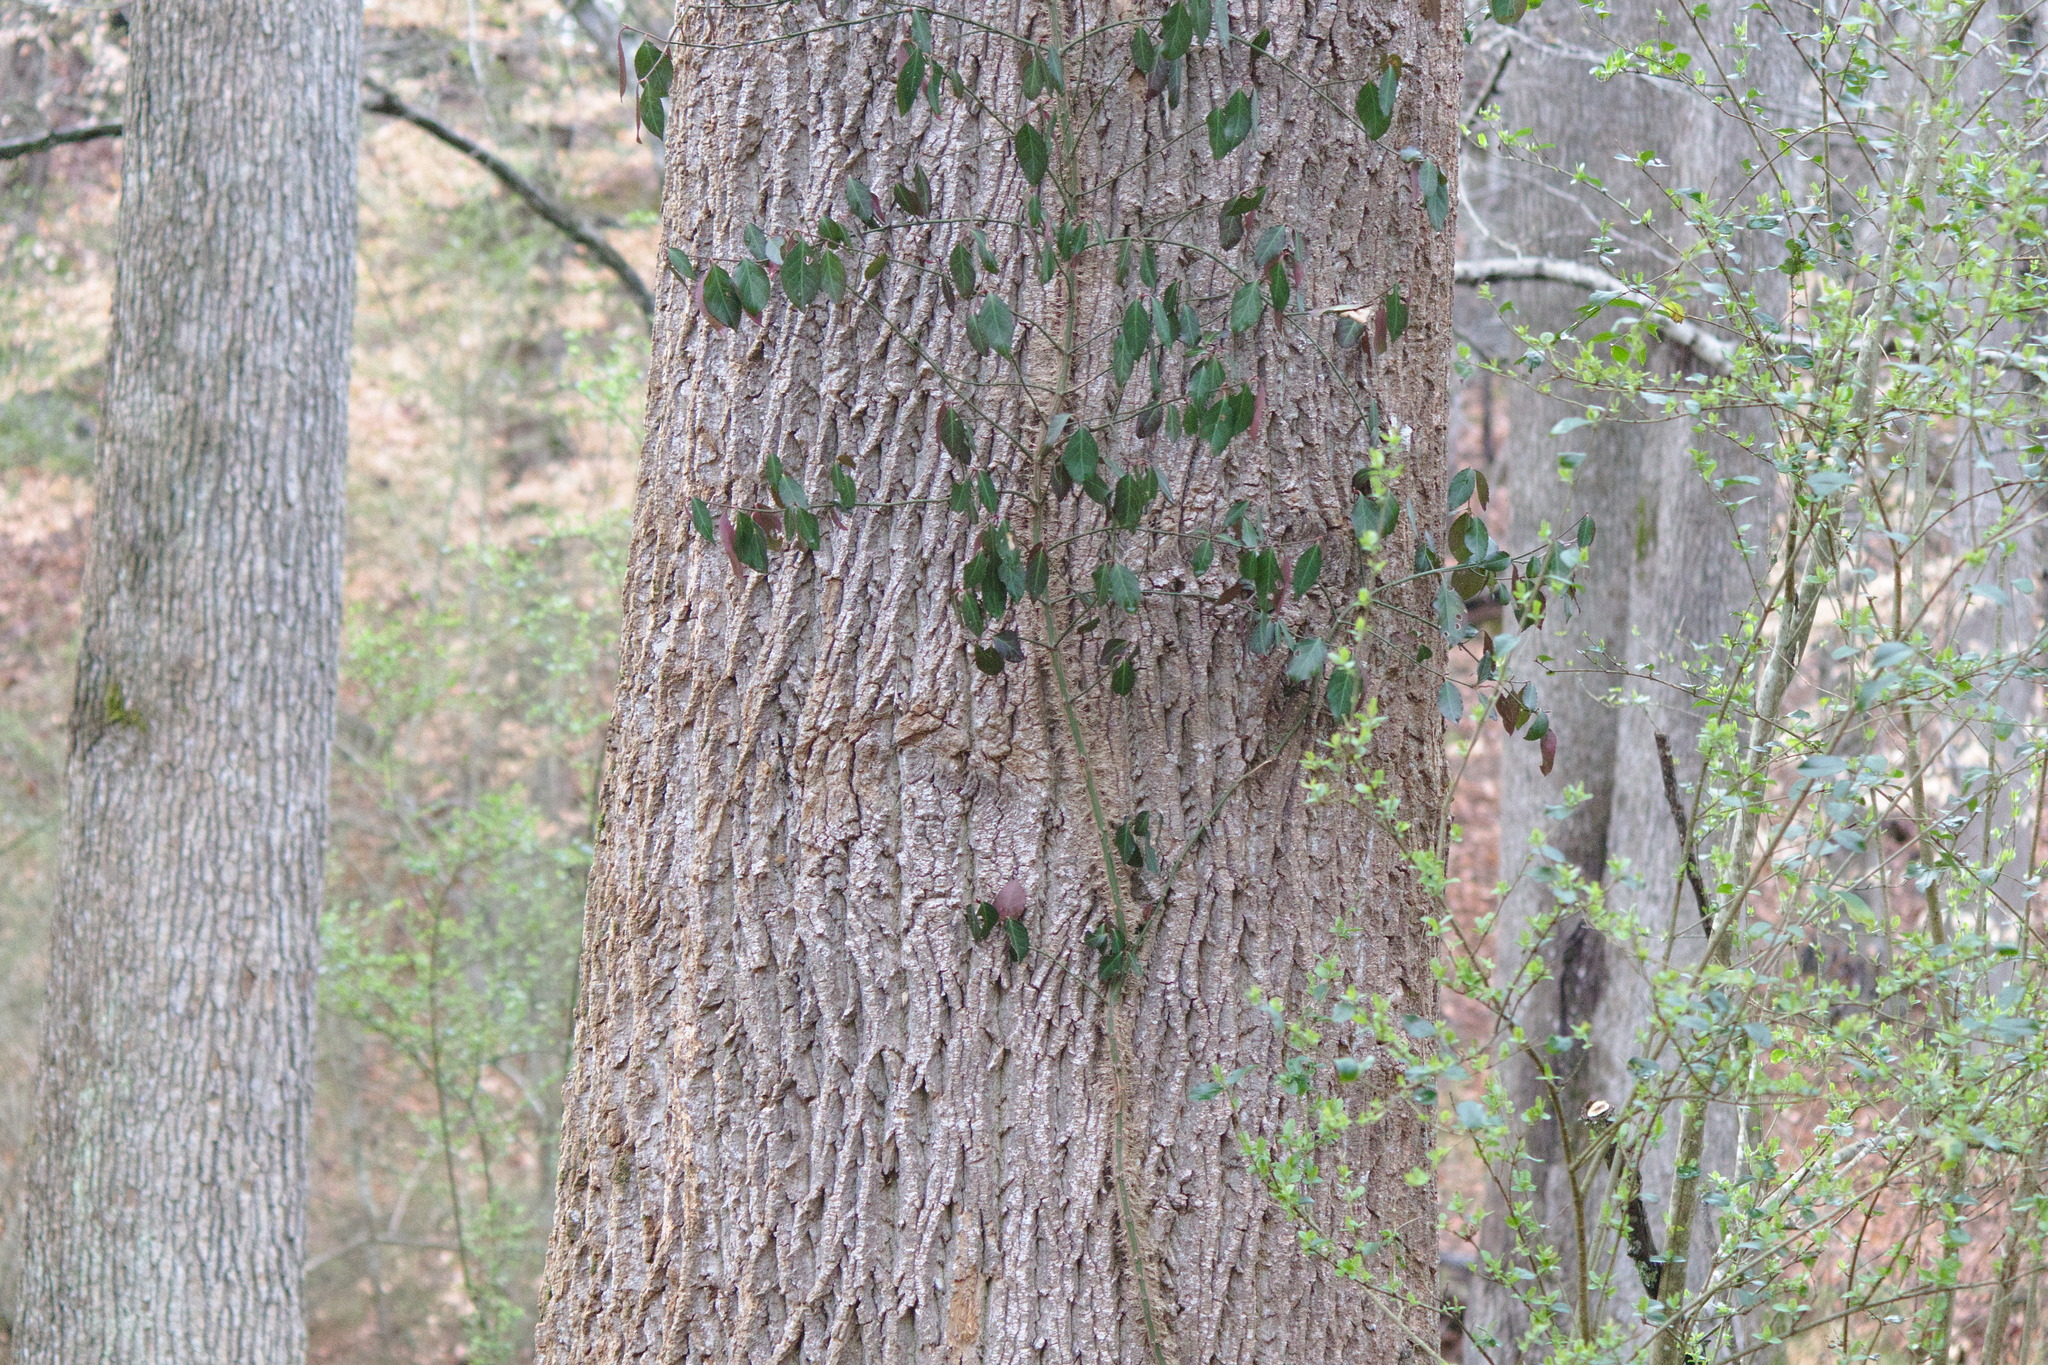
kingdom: Plantae
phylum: Tracheophyta
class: Magnoliopsida
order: Celastrales
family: Celastraceae
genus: Euonymus
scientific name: Euonymus fortunei
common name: Climbing euonymus
